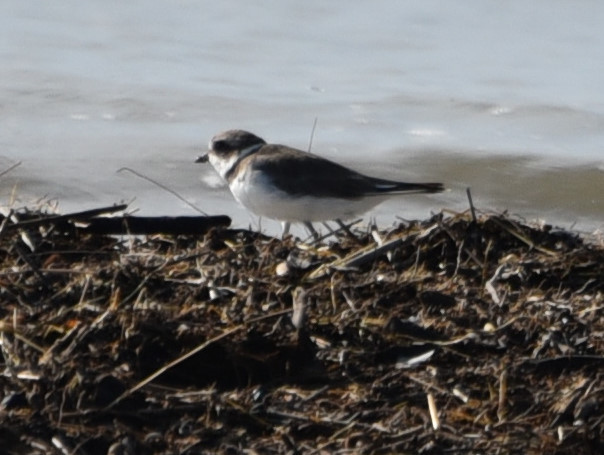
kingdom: Animalia
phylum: Chordata
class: Aves
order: Charadriiformes
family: Charadriidae
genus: Charadrius
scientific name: Charadrius semipalmatus
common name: Semipalmated plover
